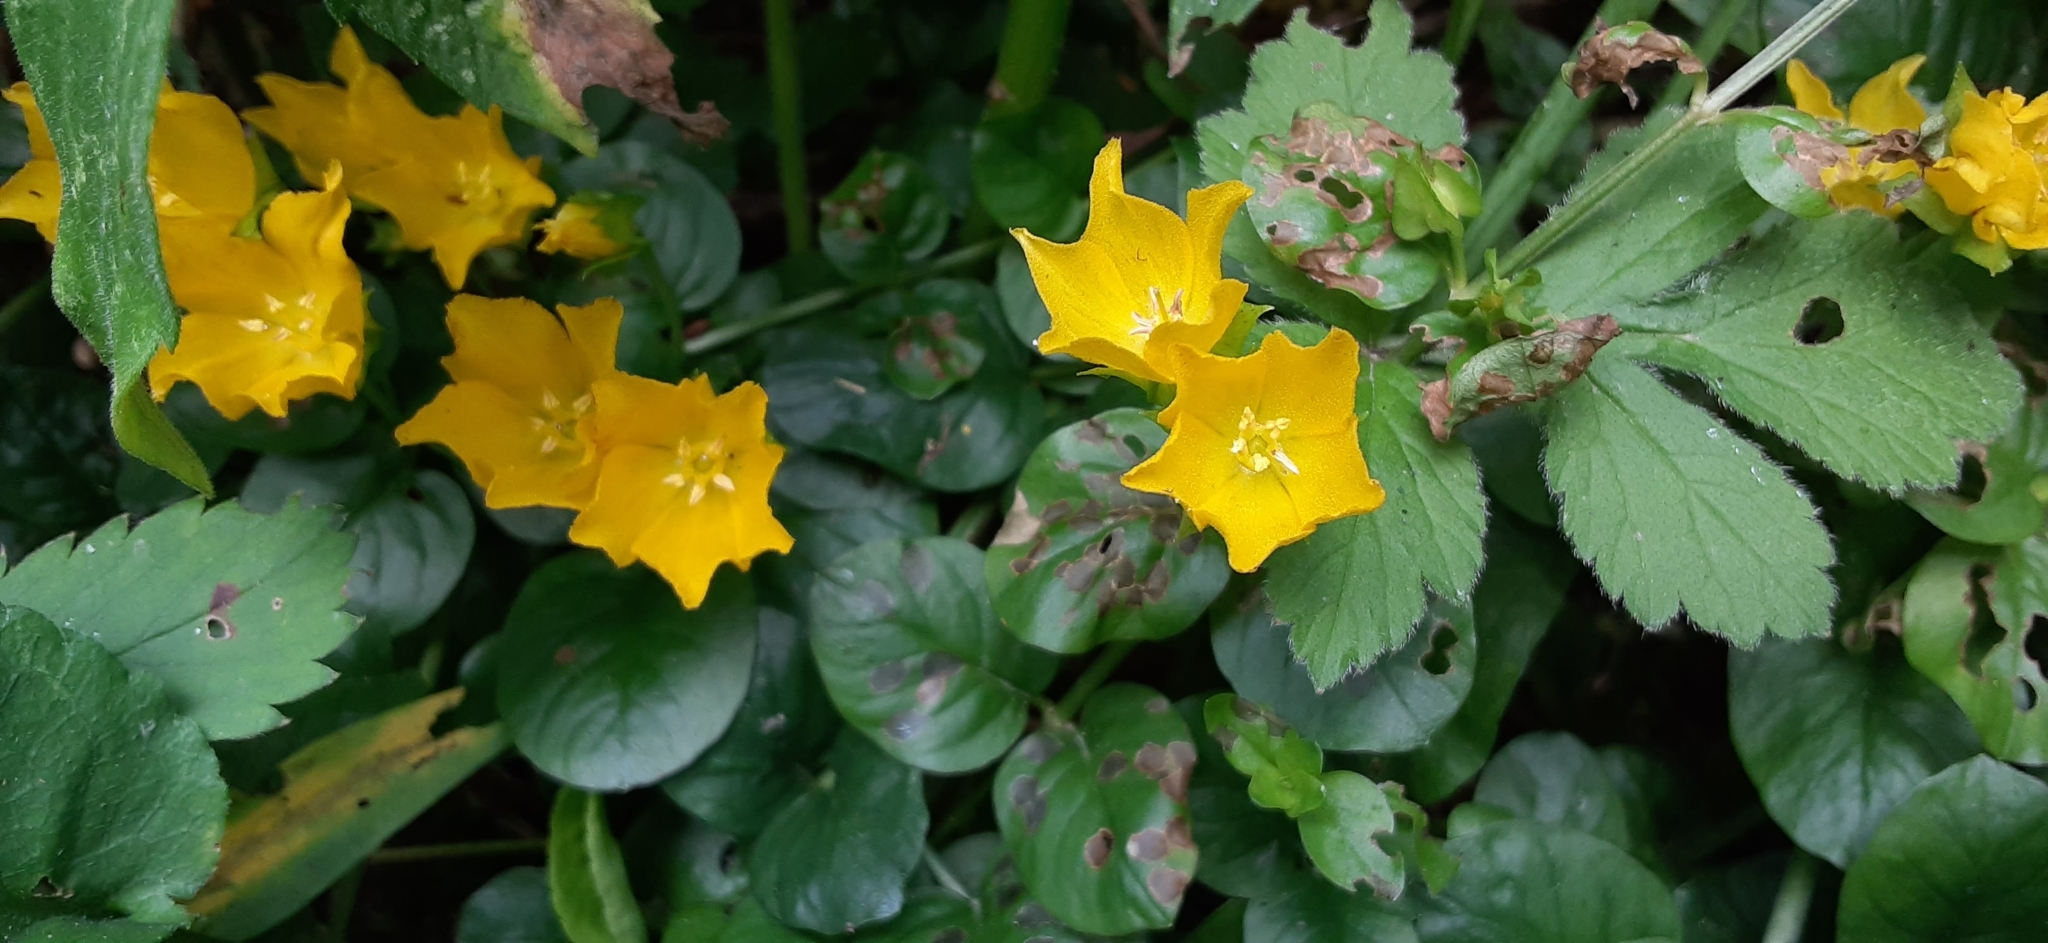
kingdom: Plantae
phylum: Tracheophyta
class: Magnoliopsida
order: Ericales
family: Primulaceae
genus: Lysimachia
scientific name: Lysimachia nummularia
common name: Moneywort
